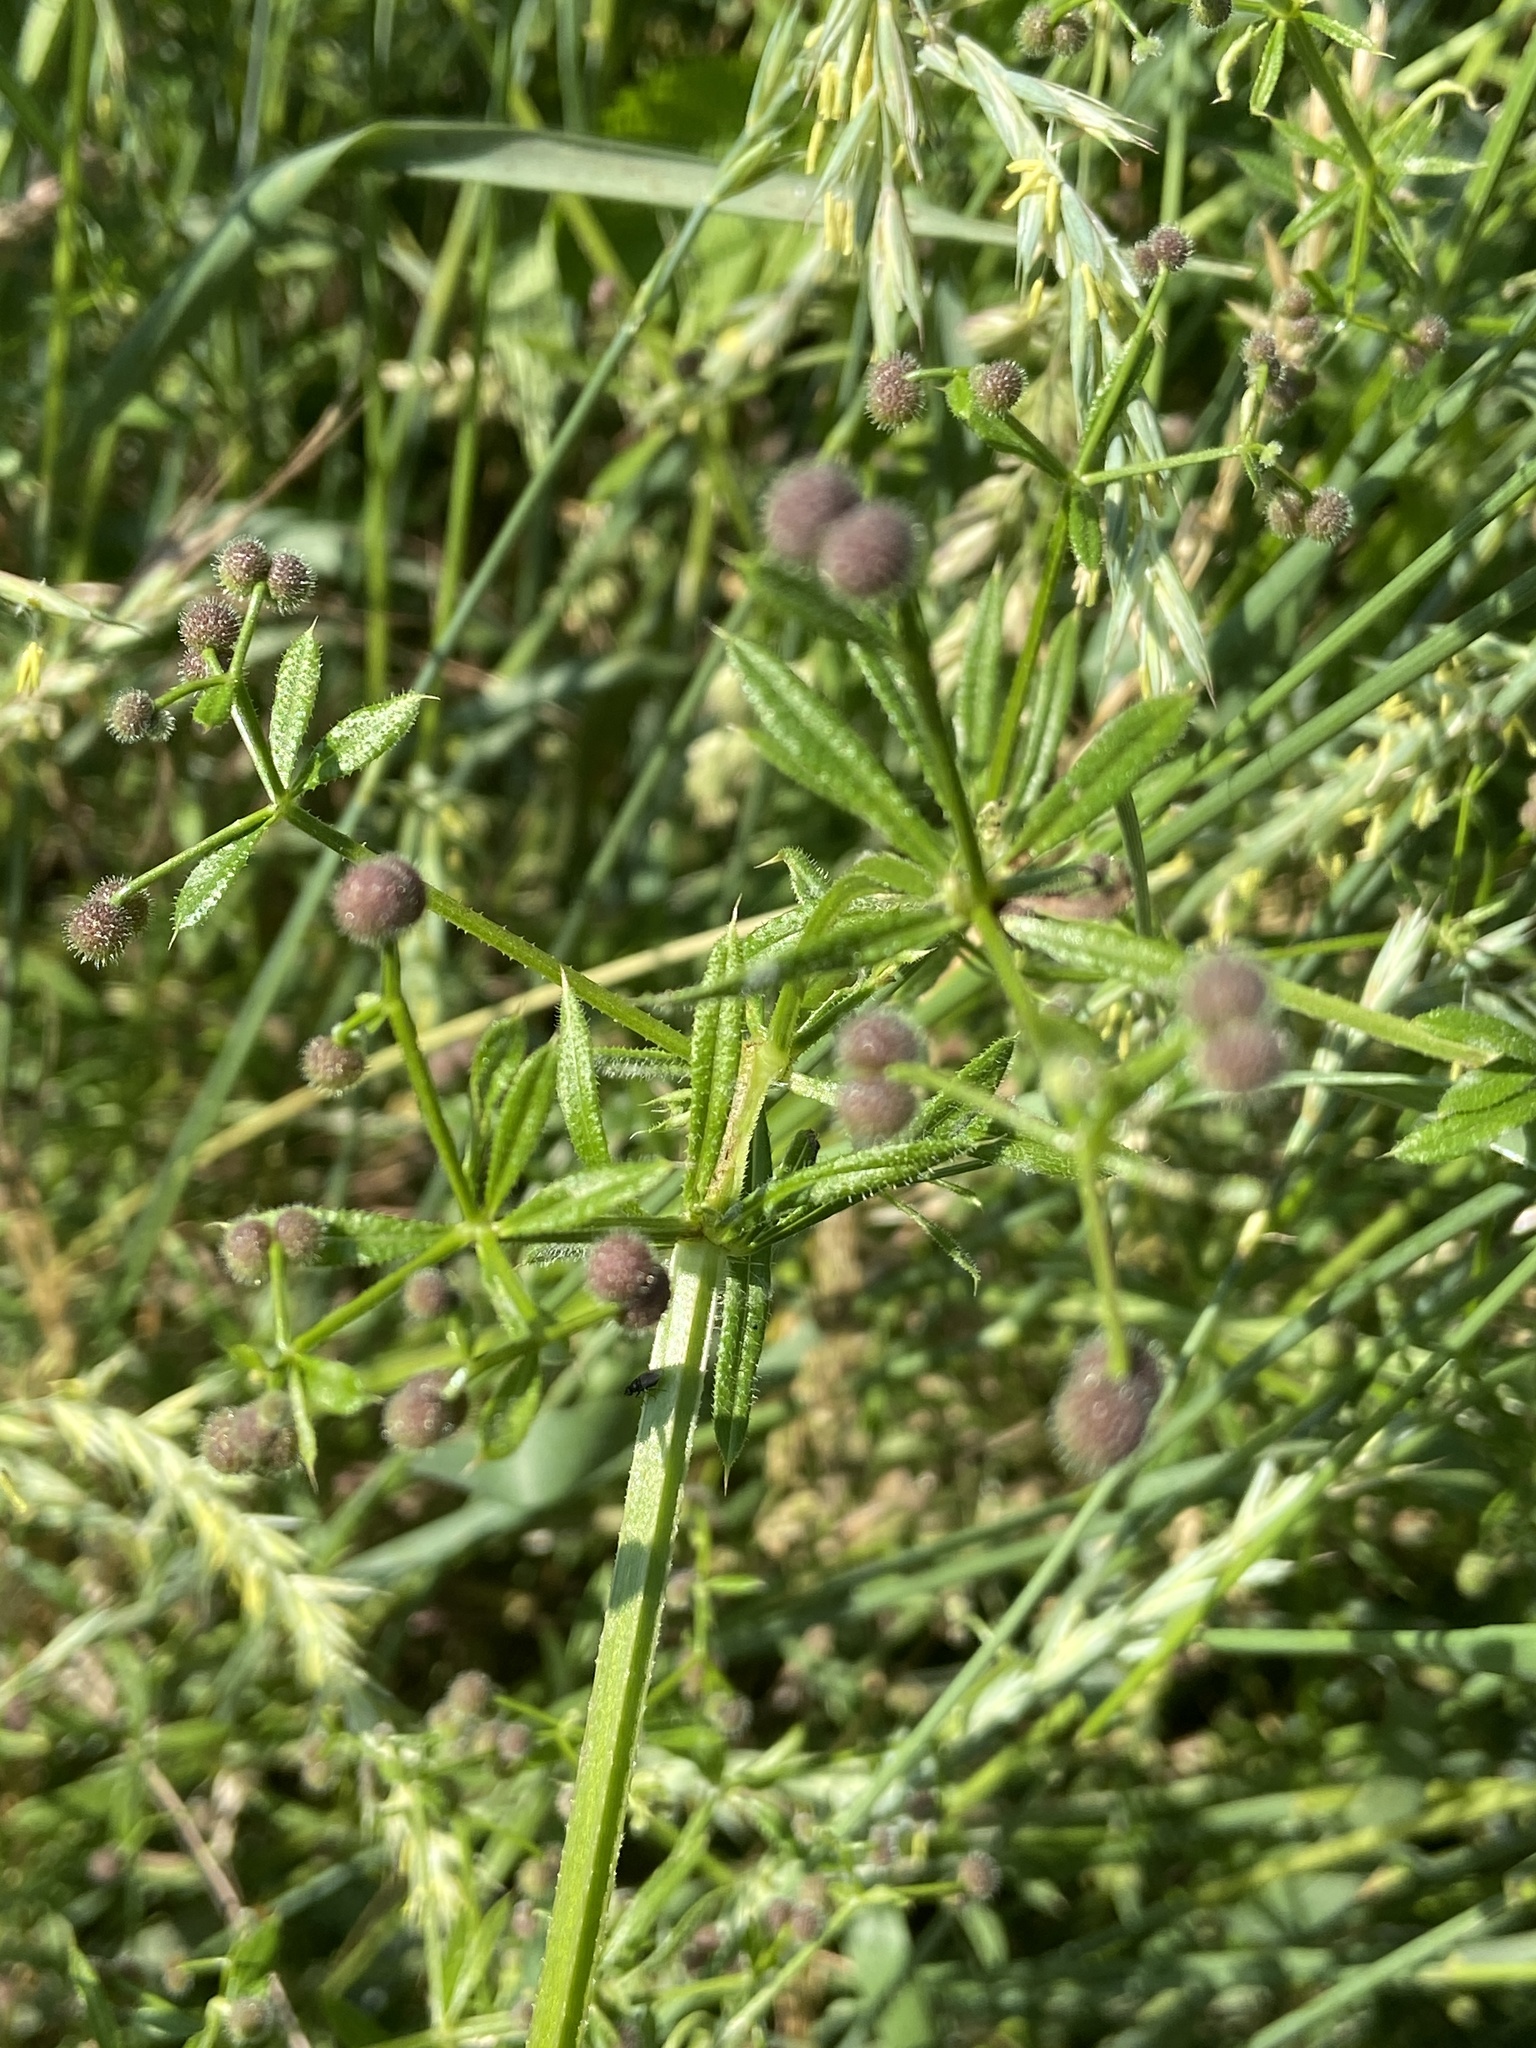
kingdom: Plantae
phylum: Tracheophyta
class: Magnoliopsida
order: Gentianales
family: Rubiaceae
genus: Galium
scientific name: Galium aparine
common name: Cleavers
